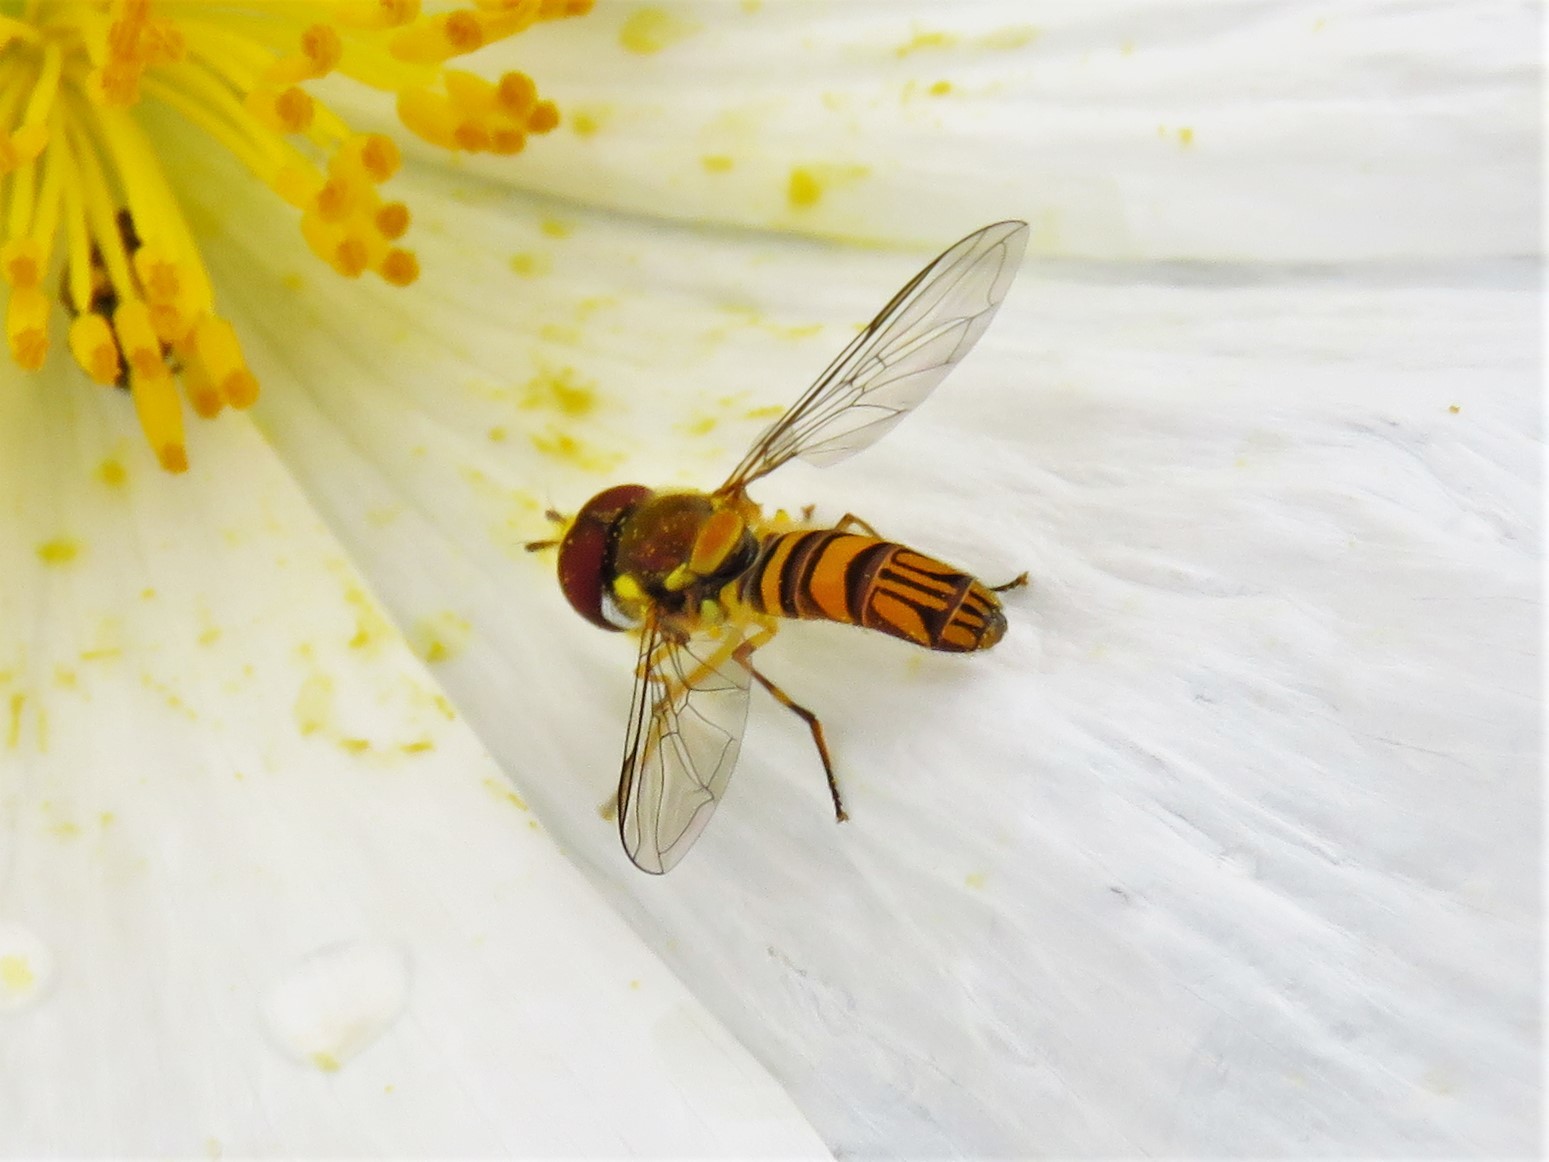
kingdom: Animalia
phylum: Arthropoda
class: Insecta
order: Diptera
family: Syrphidae
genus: Allograpta
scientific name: Allograpta obliqua
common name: Common oblique syrphid
